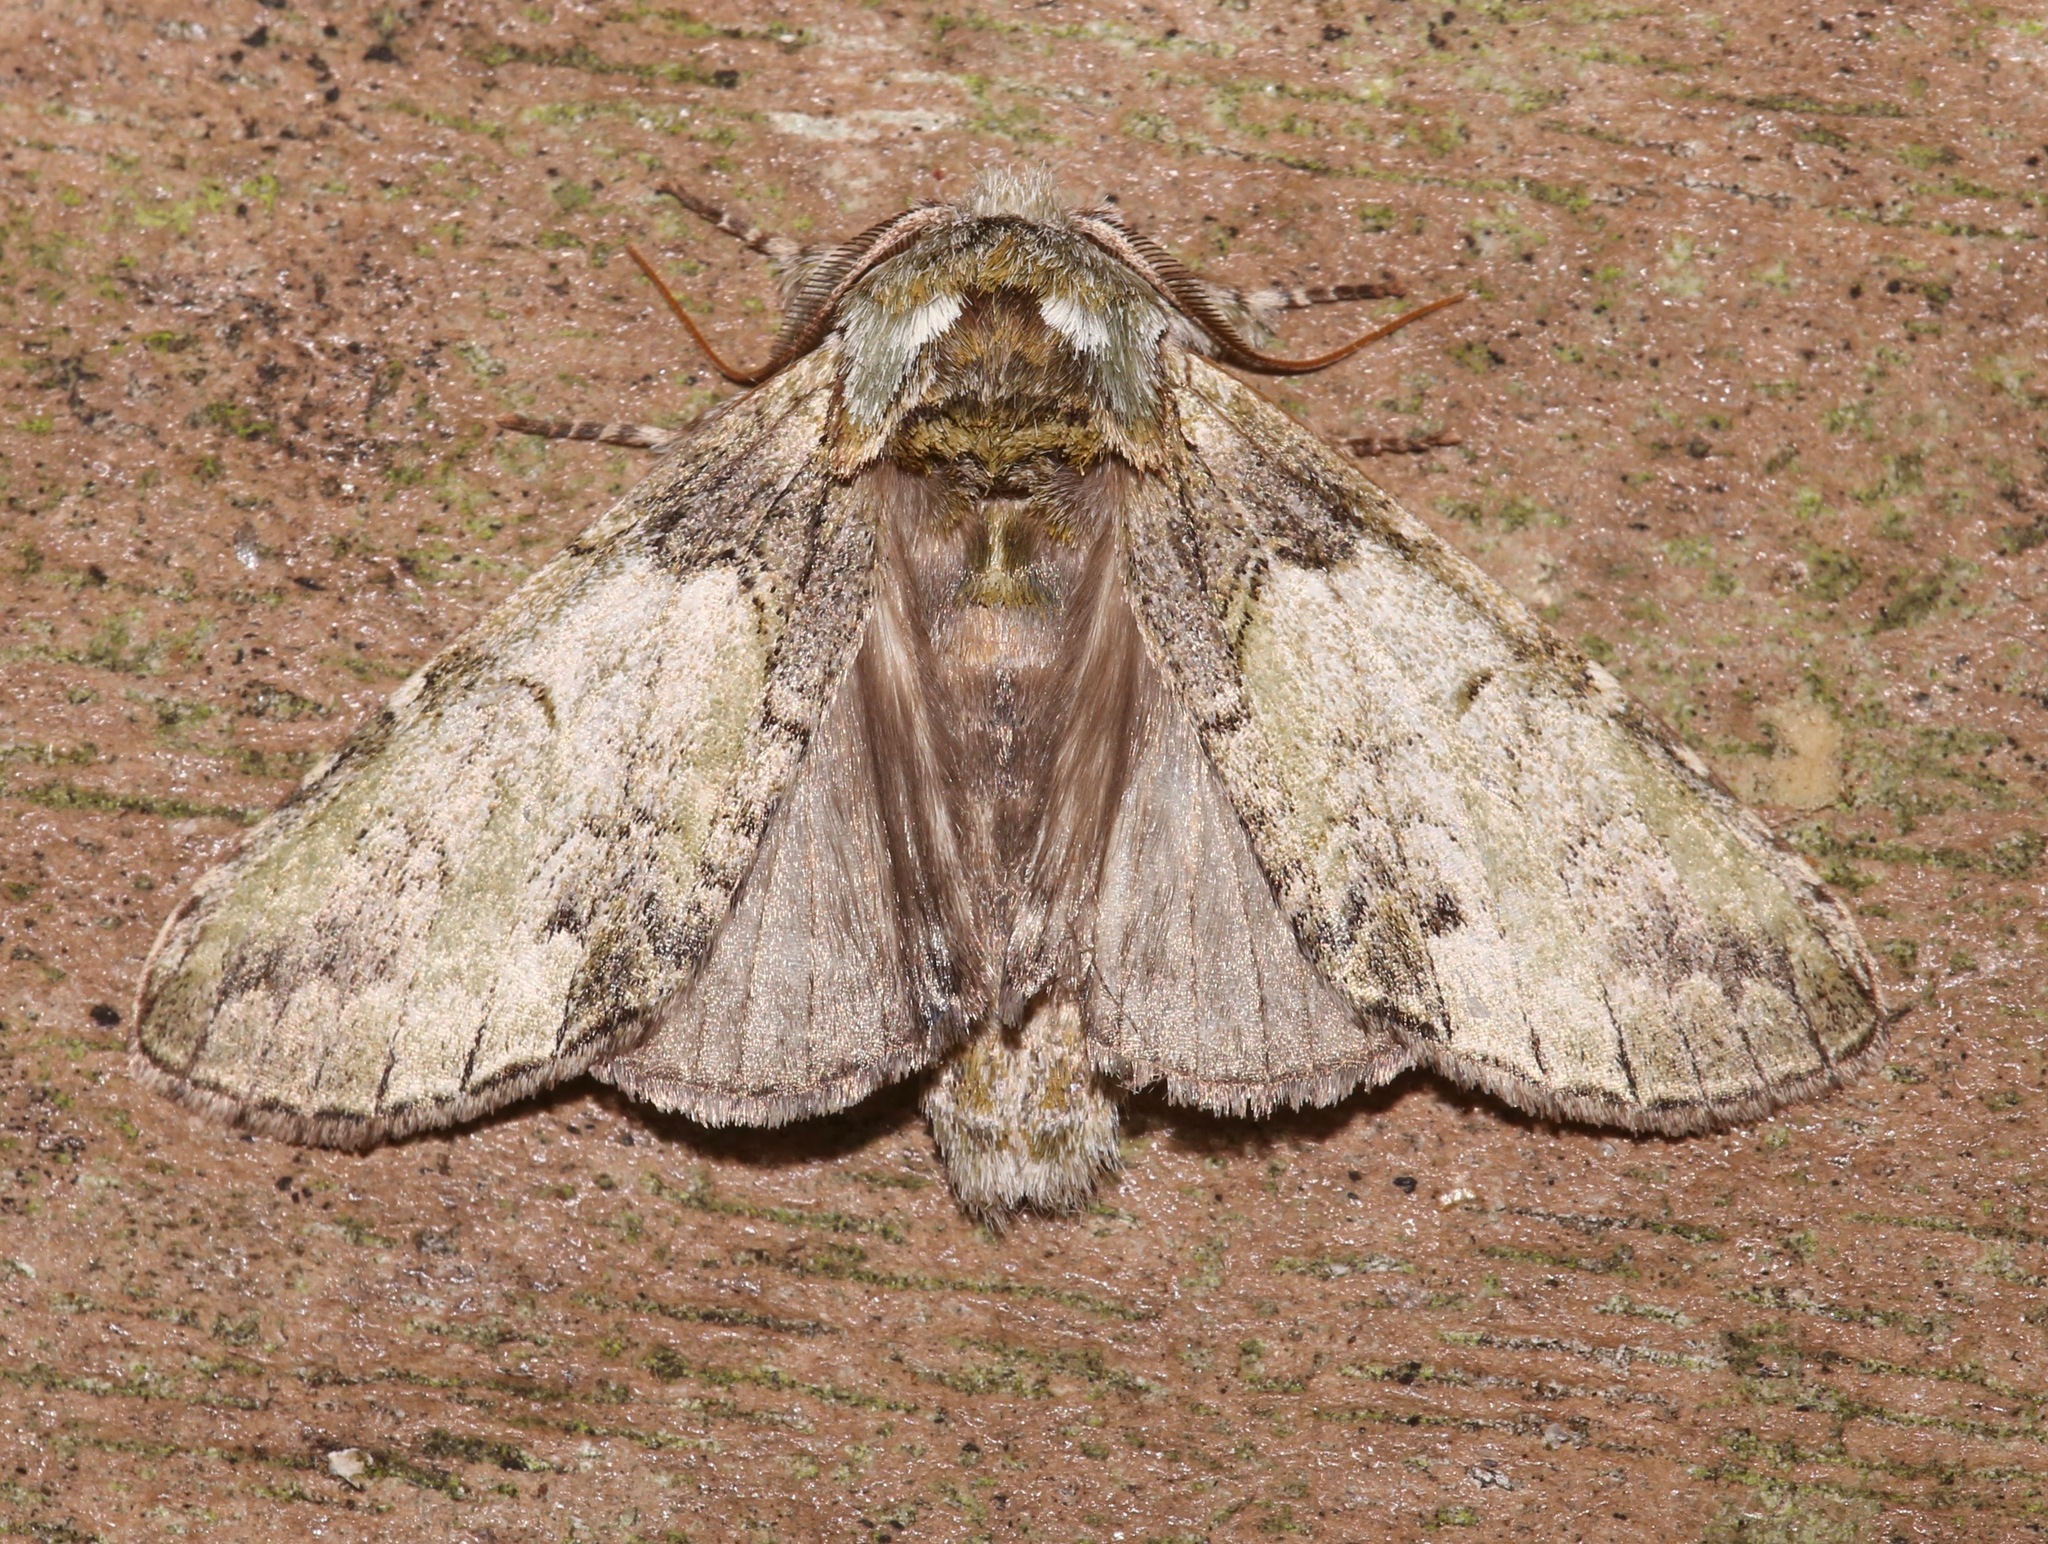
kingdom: Animalia
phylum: Arthropoda
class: Insecta
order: Lepidoptera
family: Notodontidae
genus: Macrurocampa
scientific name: Macrurocampa marthesia
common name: Mottled prominent
